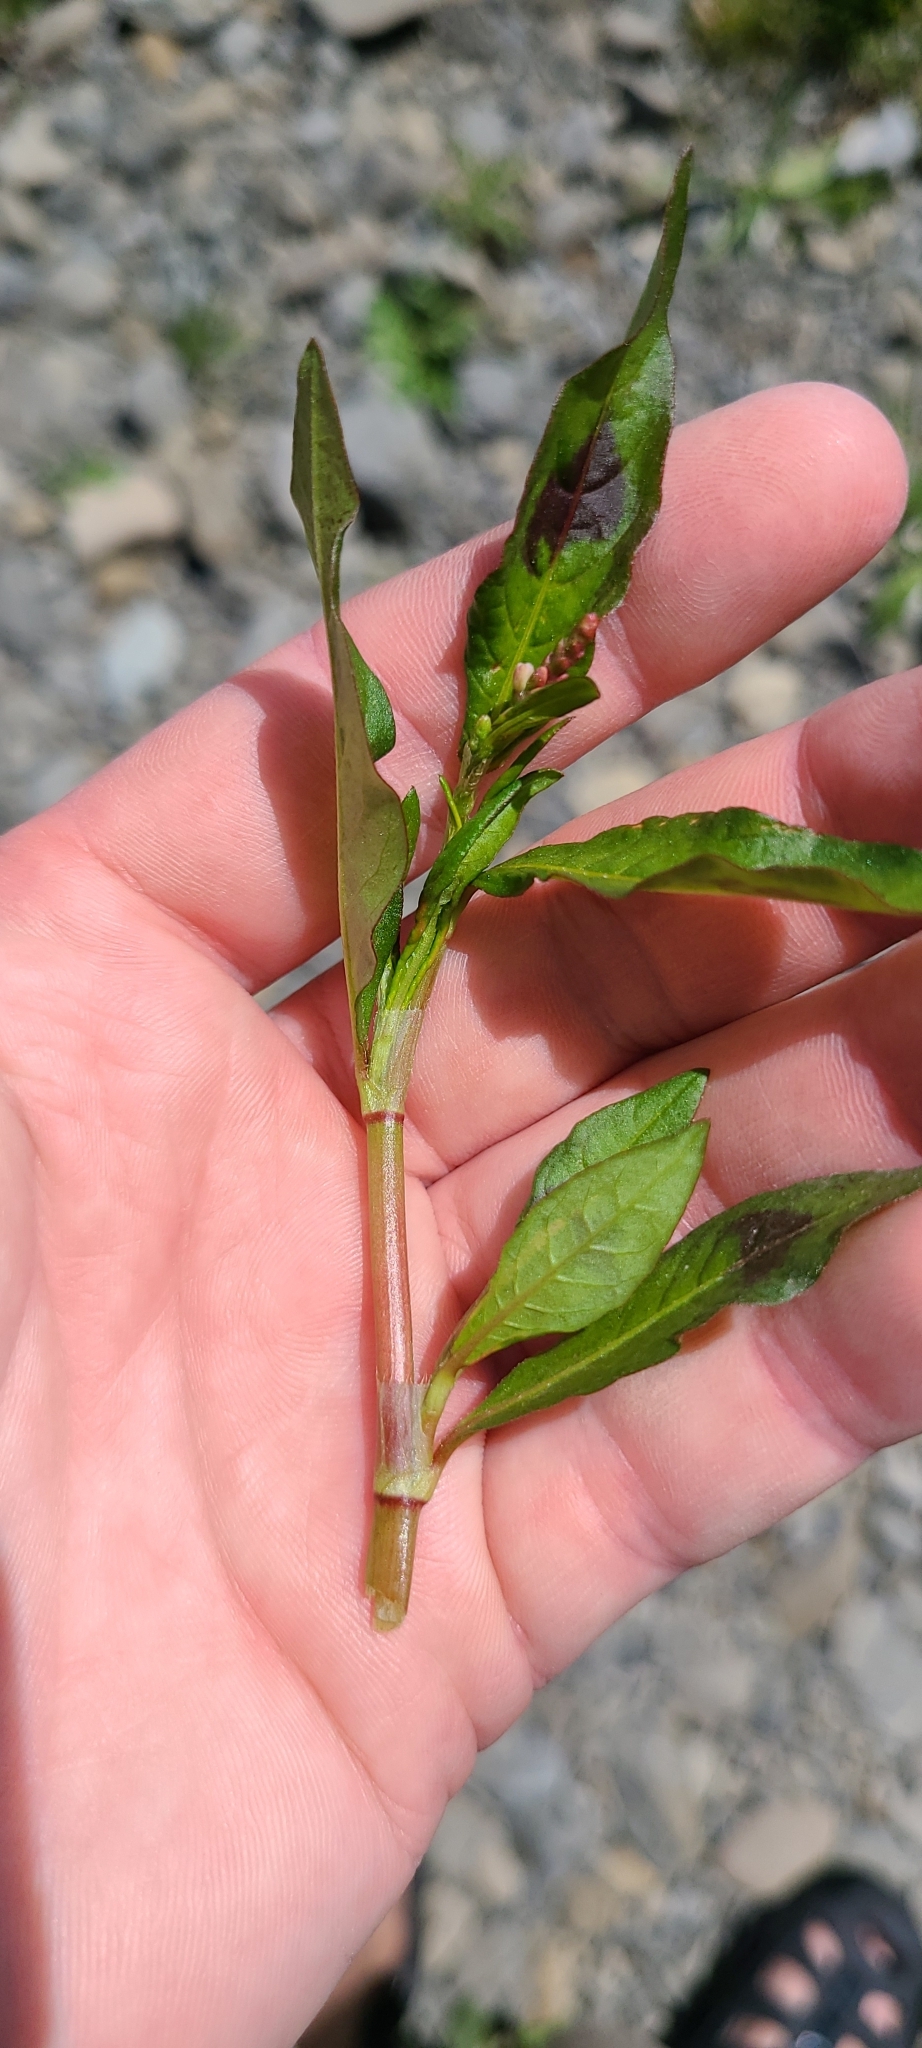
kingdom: Plantae
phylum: Tracheophyta
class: Magnoliopsida
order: Caryophyllales
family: Polygonaceae
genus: Persicaria
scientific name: Persicaria maculosa
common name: Redshank
